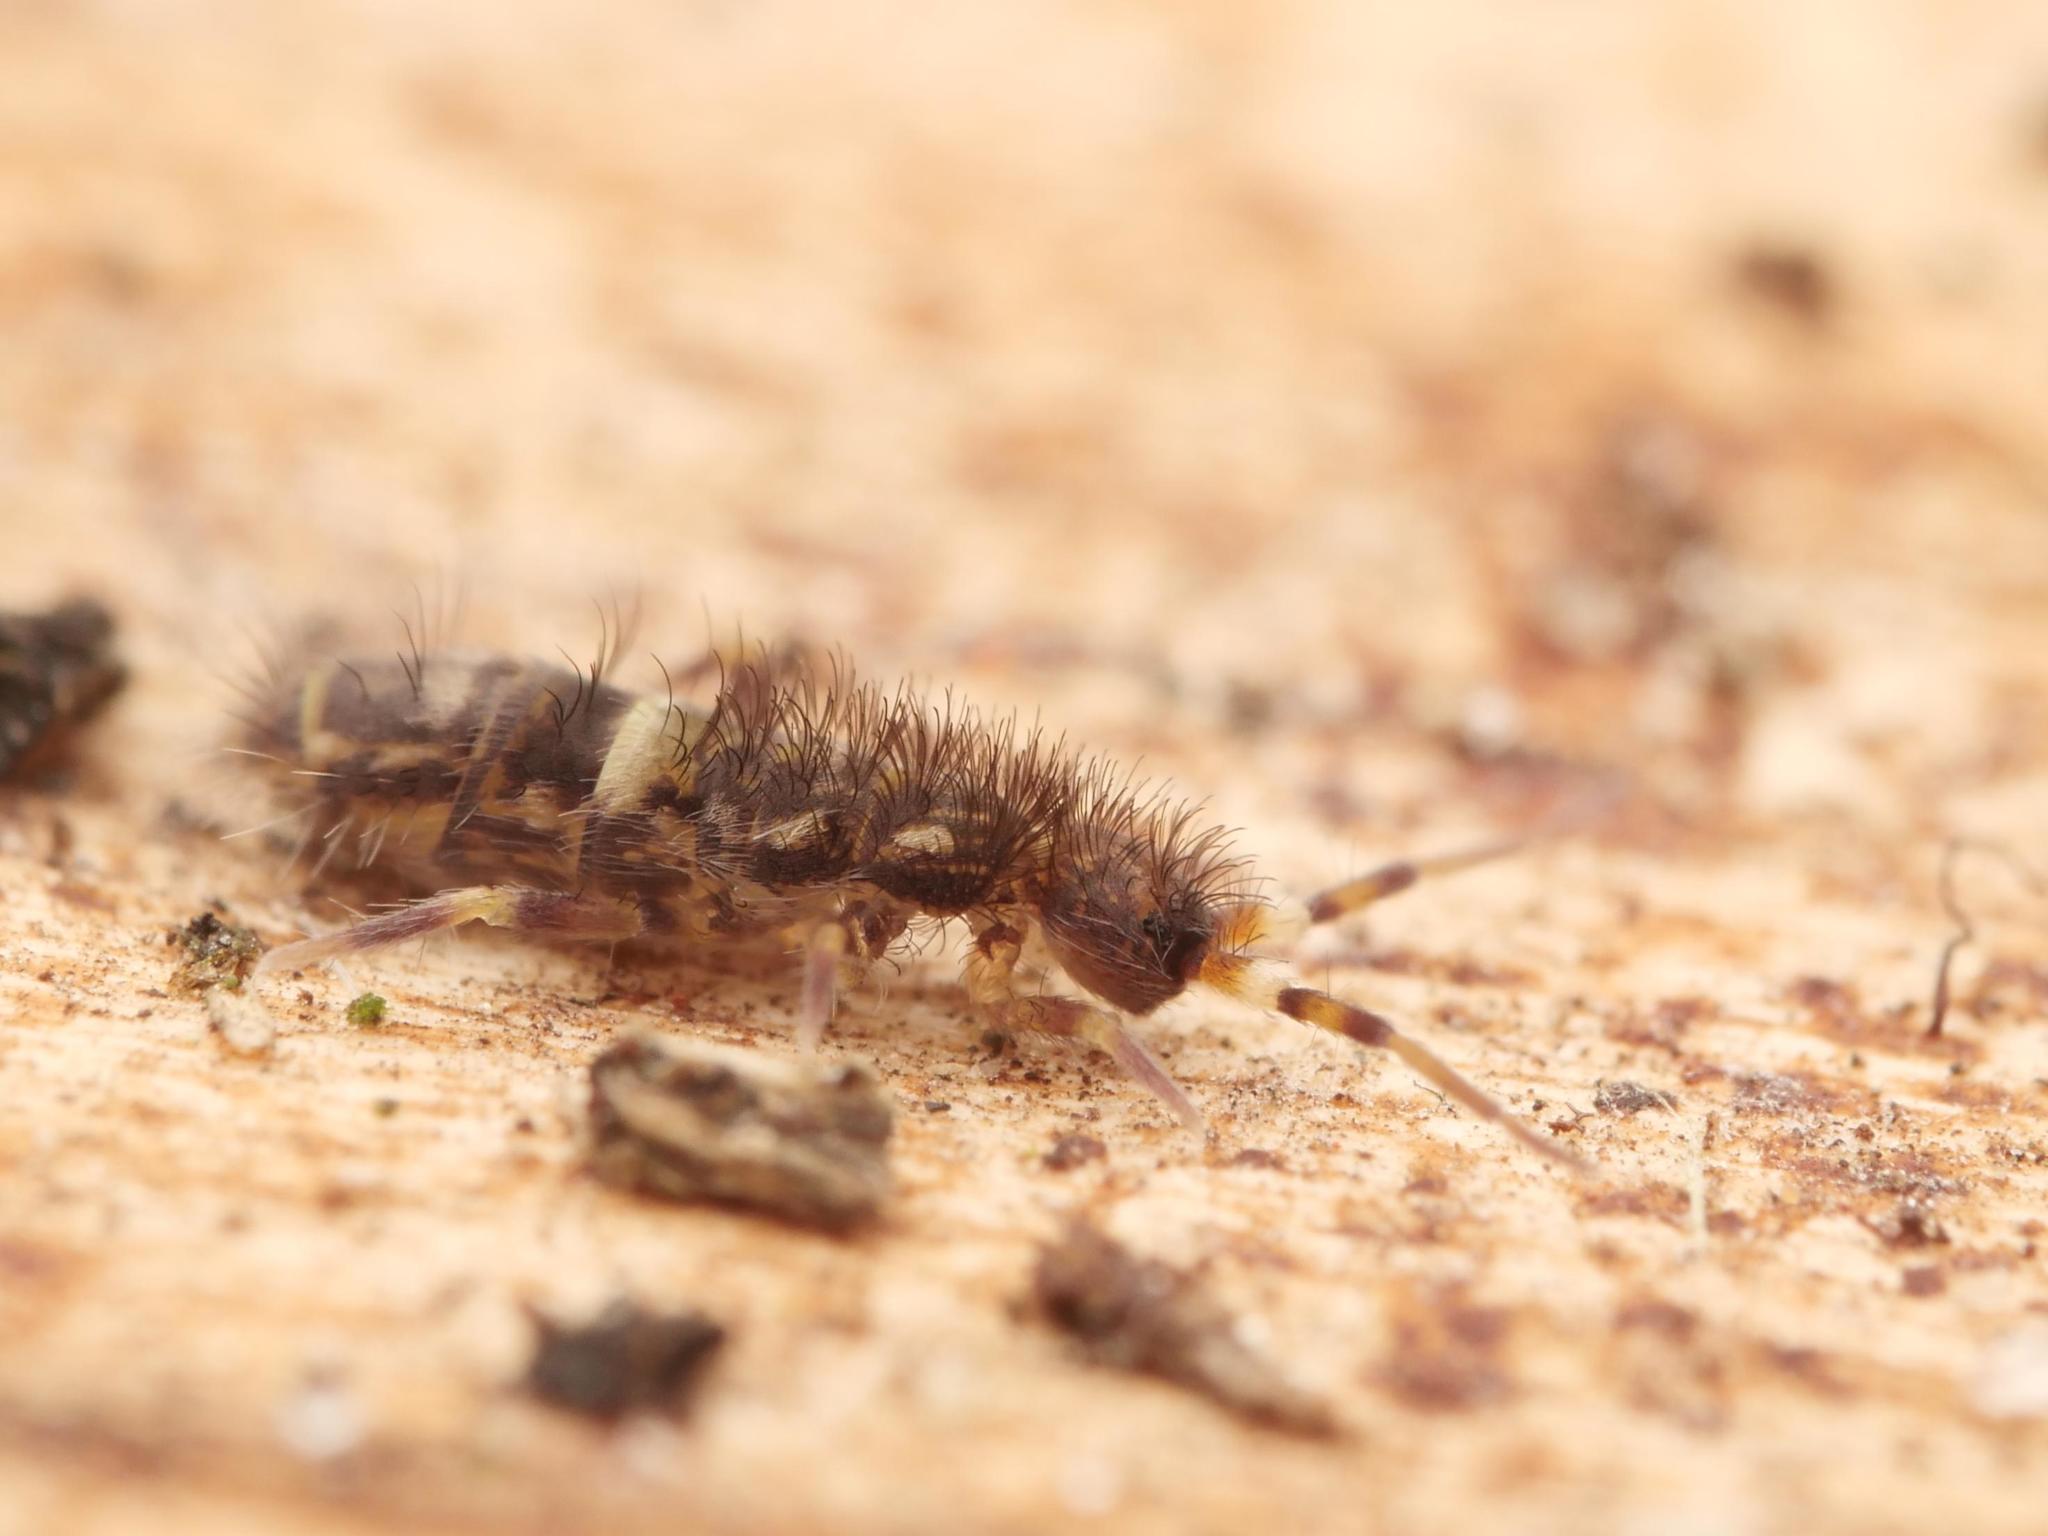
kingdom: Animalia
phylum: Arthropoda
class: Collembola
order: Entomobryomorpha
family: Orchesellidae
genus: Orchesella
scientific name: Orchesella cincta
